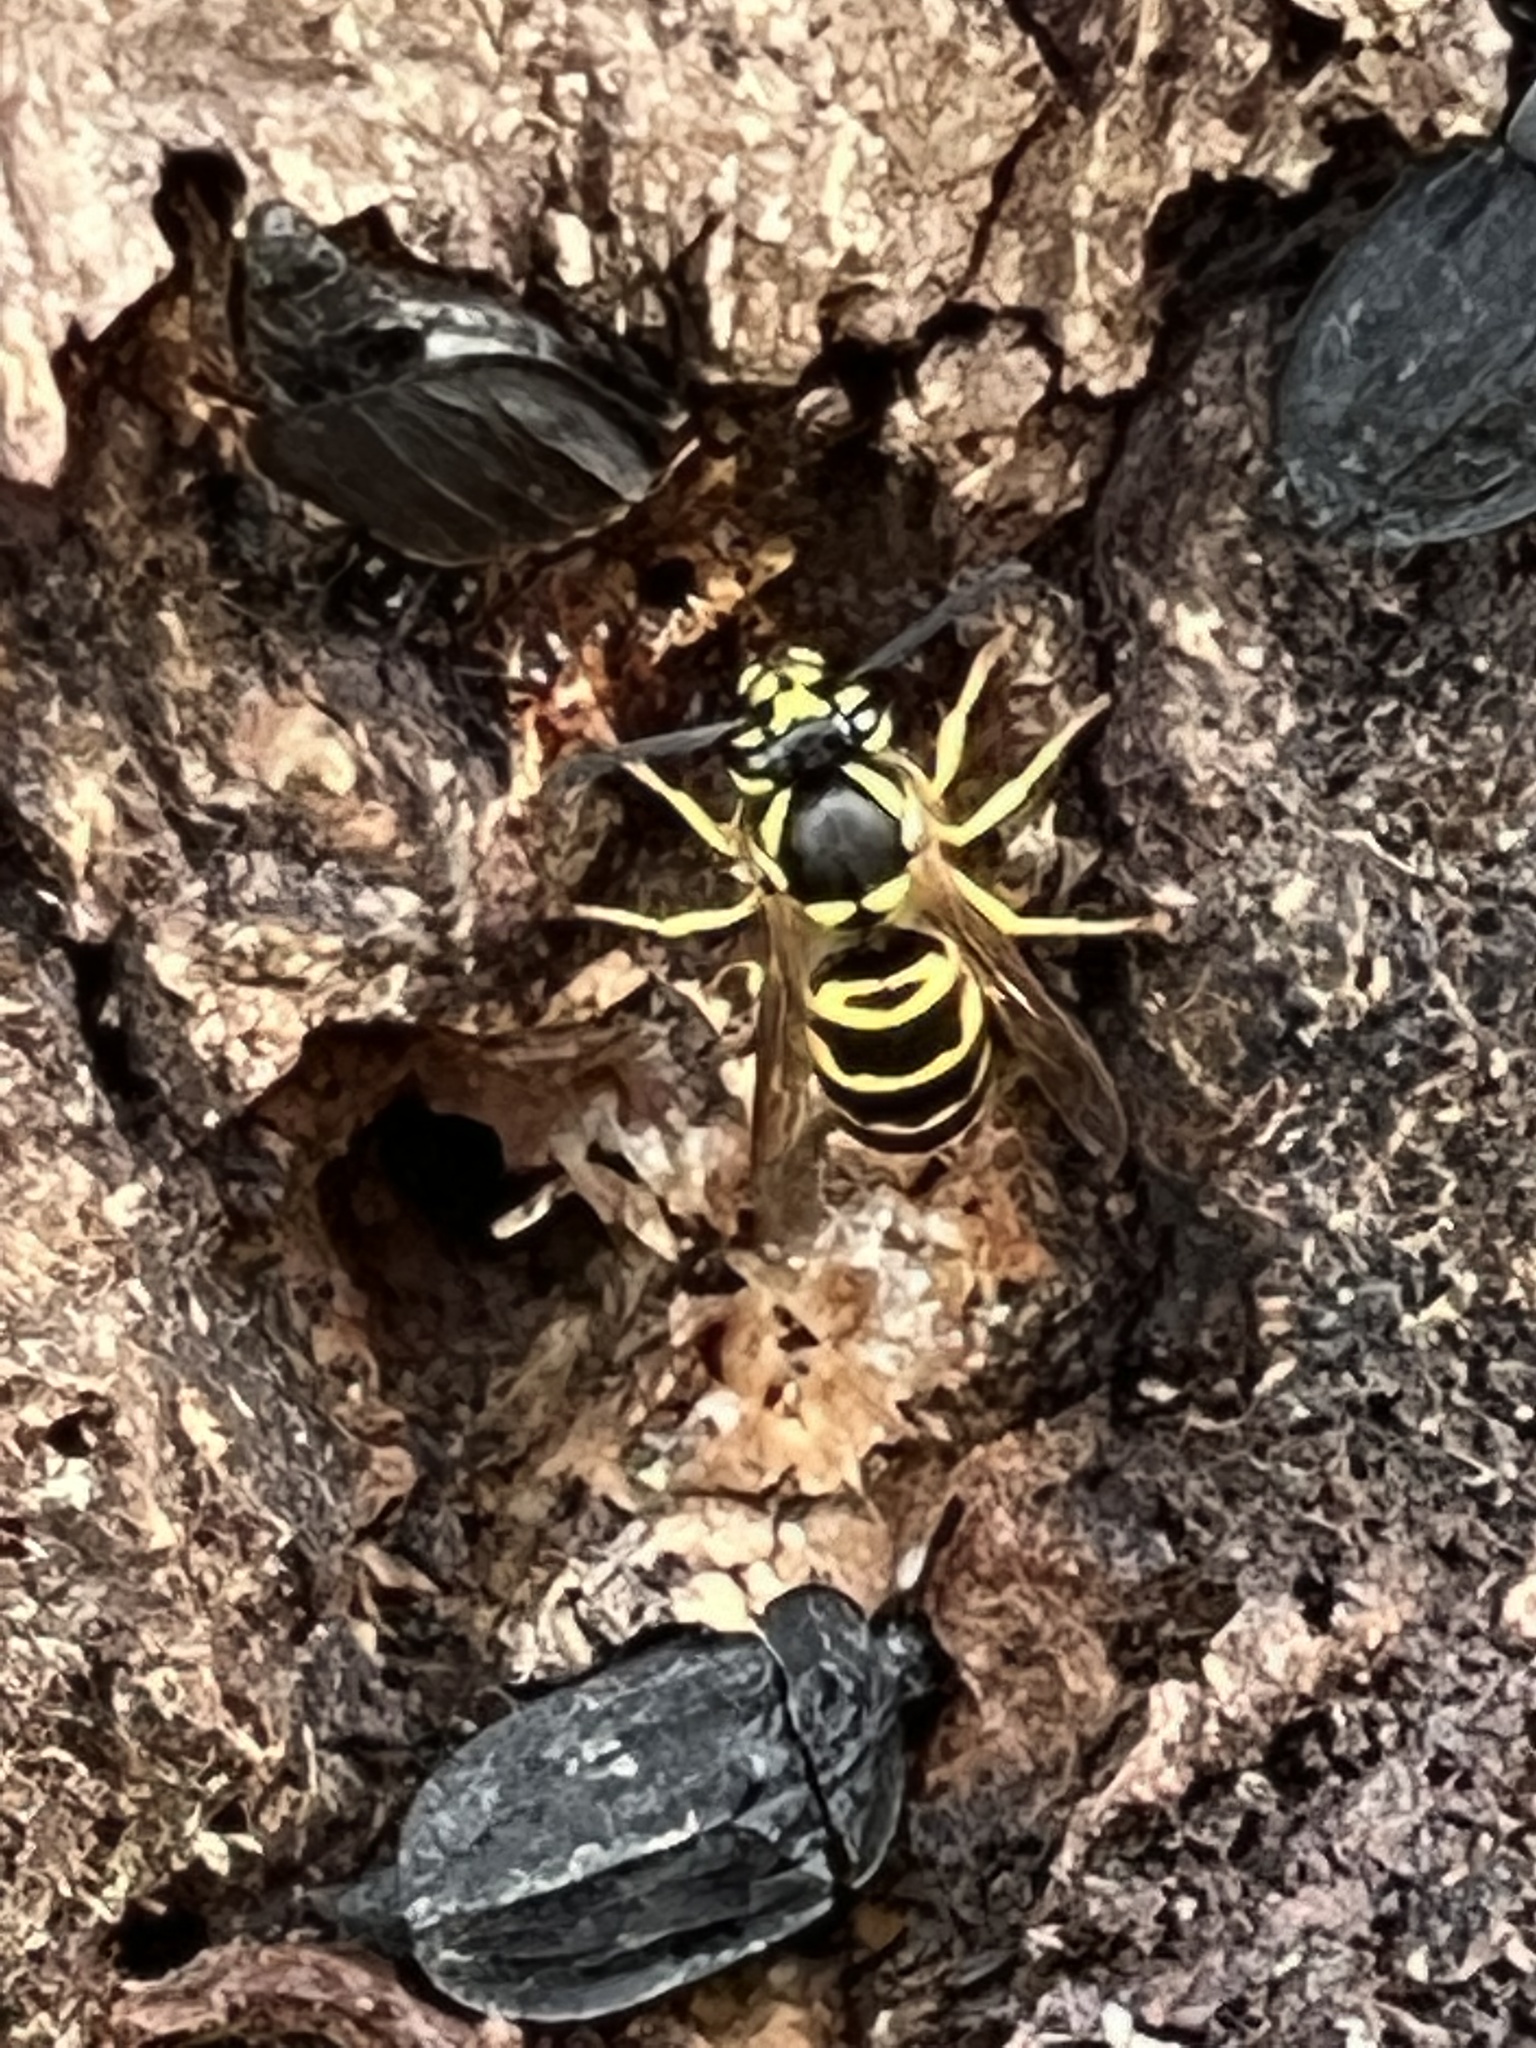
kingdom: Animalia
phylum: Arthropoda
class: Insecta
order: Hymenoptera
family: Vespidae
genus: Vespula
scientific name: Vespula maculifrons
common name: Eastern yellowjacket
